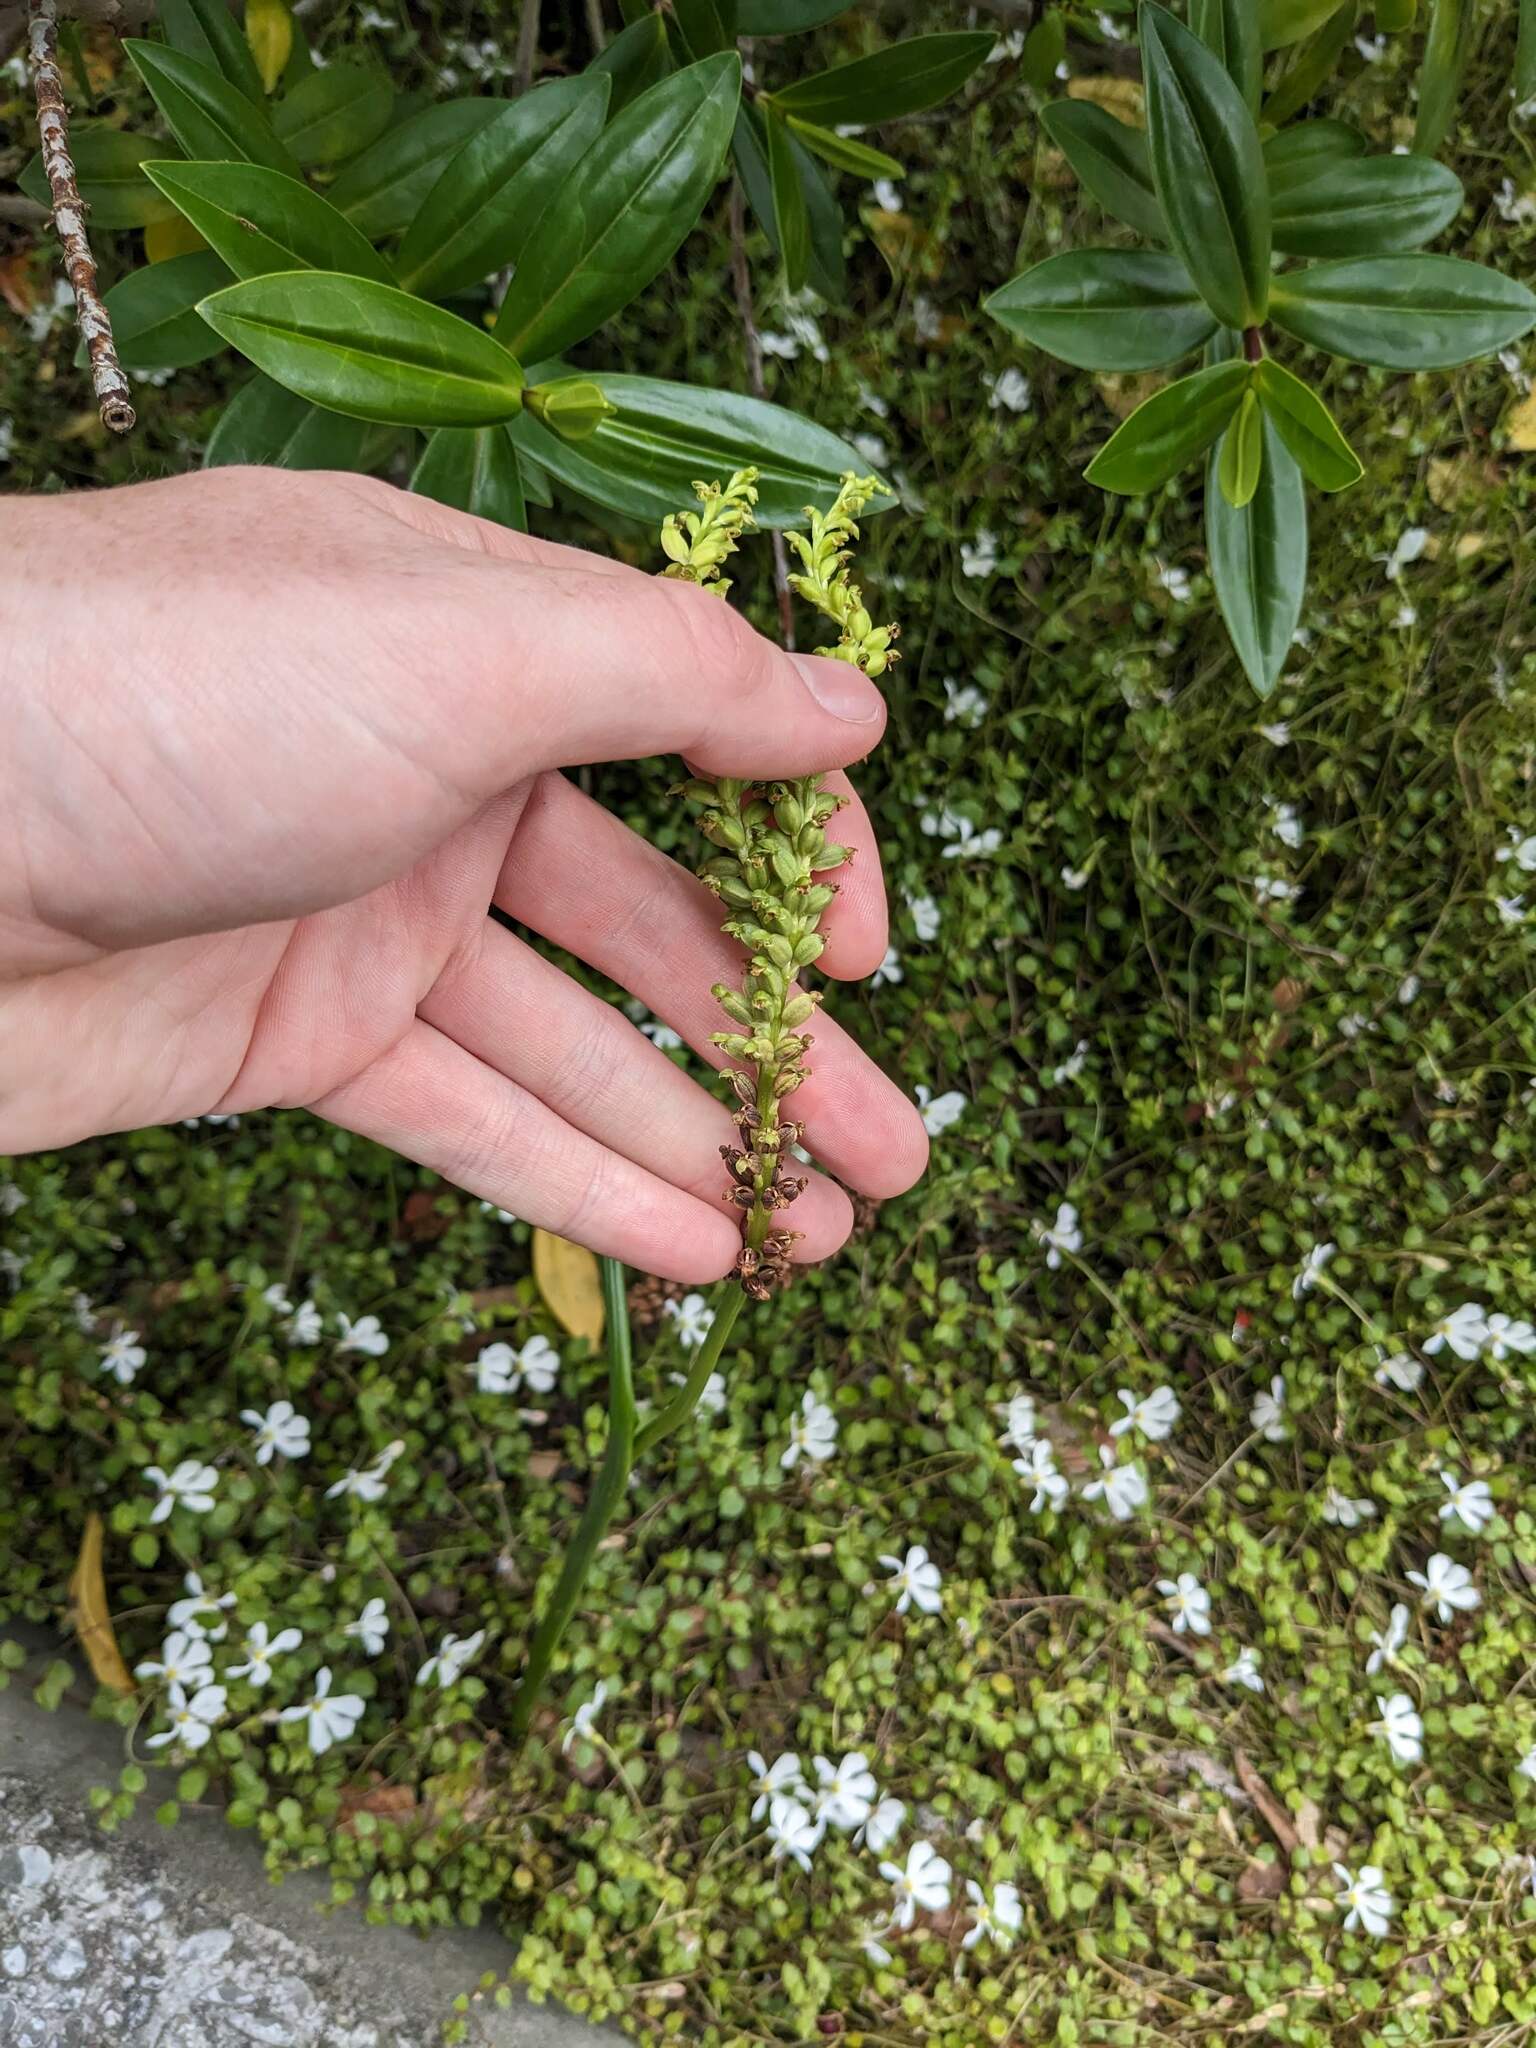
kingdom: Plantae
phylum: Tracheophyta
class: Liliopsida
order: Asparagales
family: Orchidaceae
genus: Microtis
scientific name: Microtis unifolia
